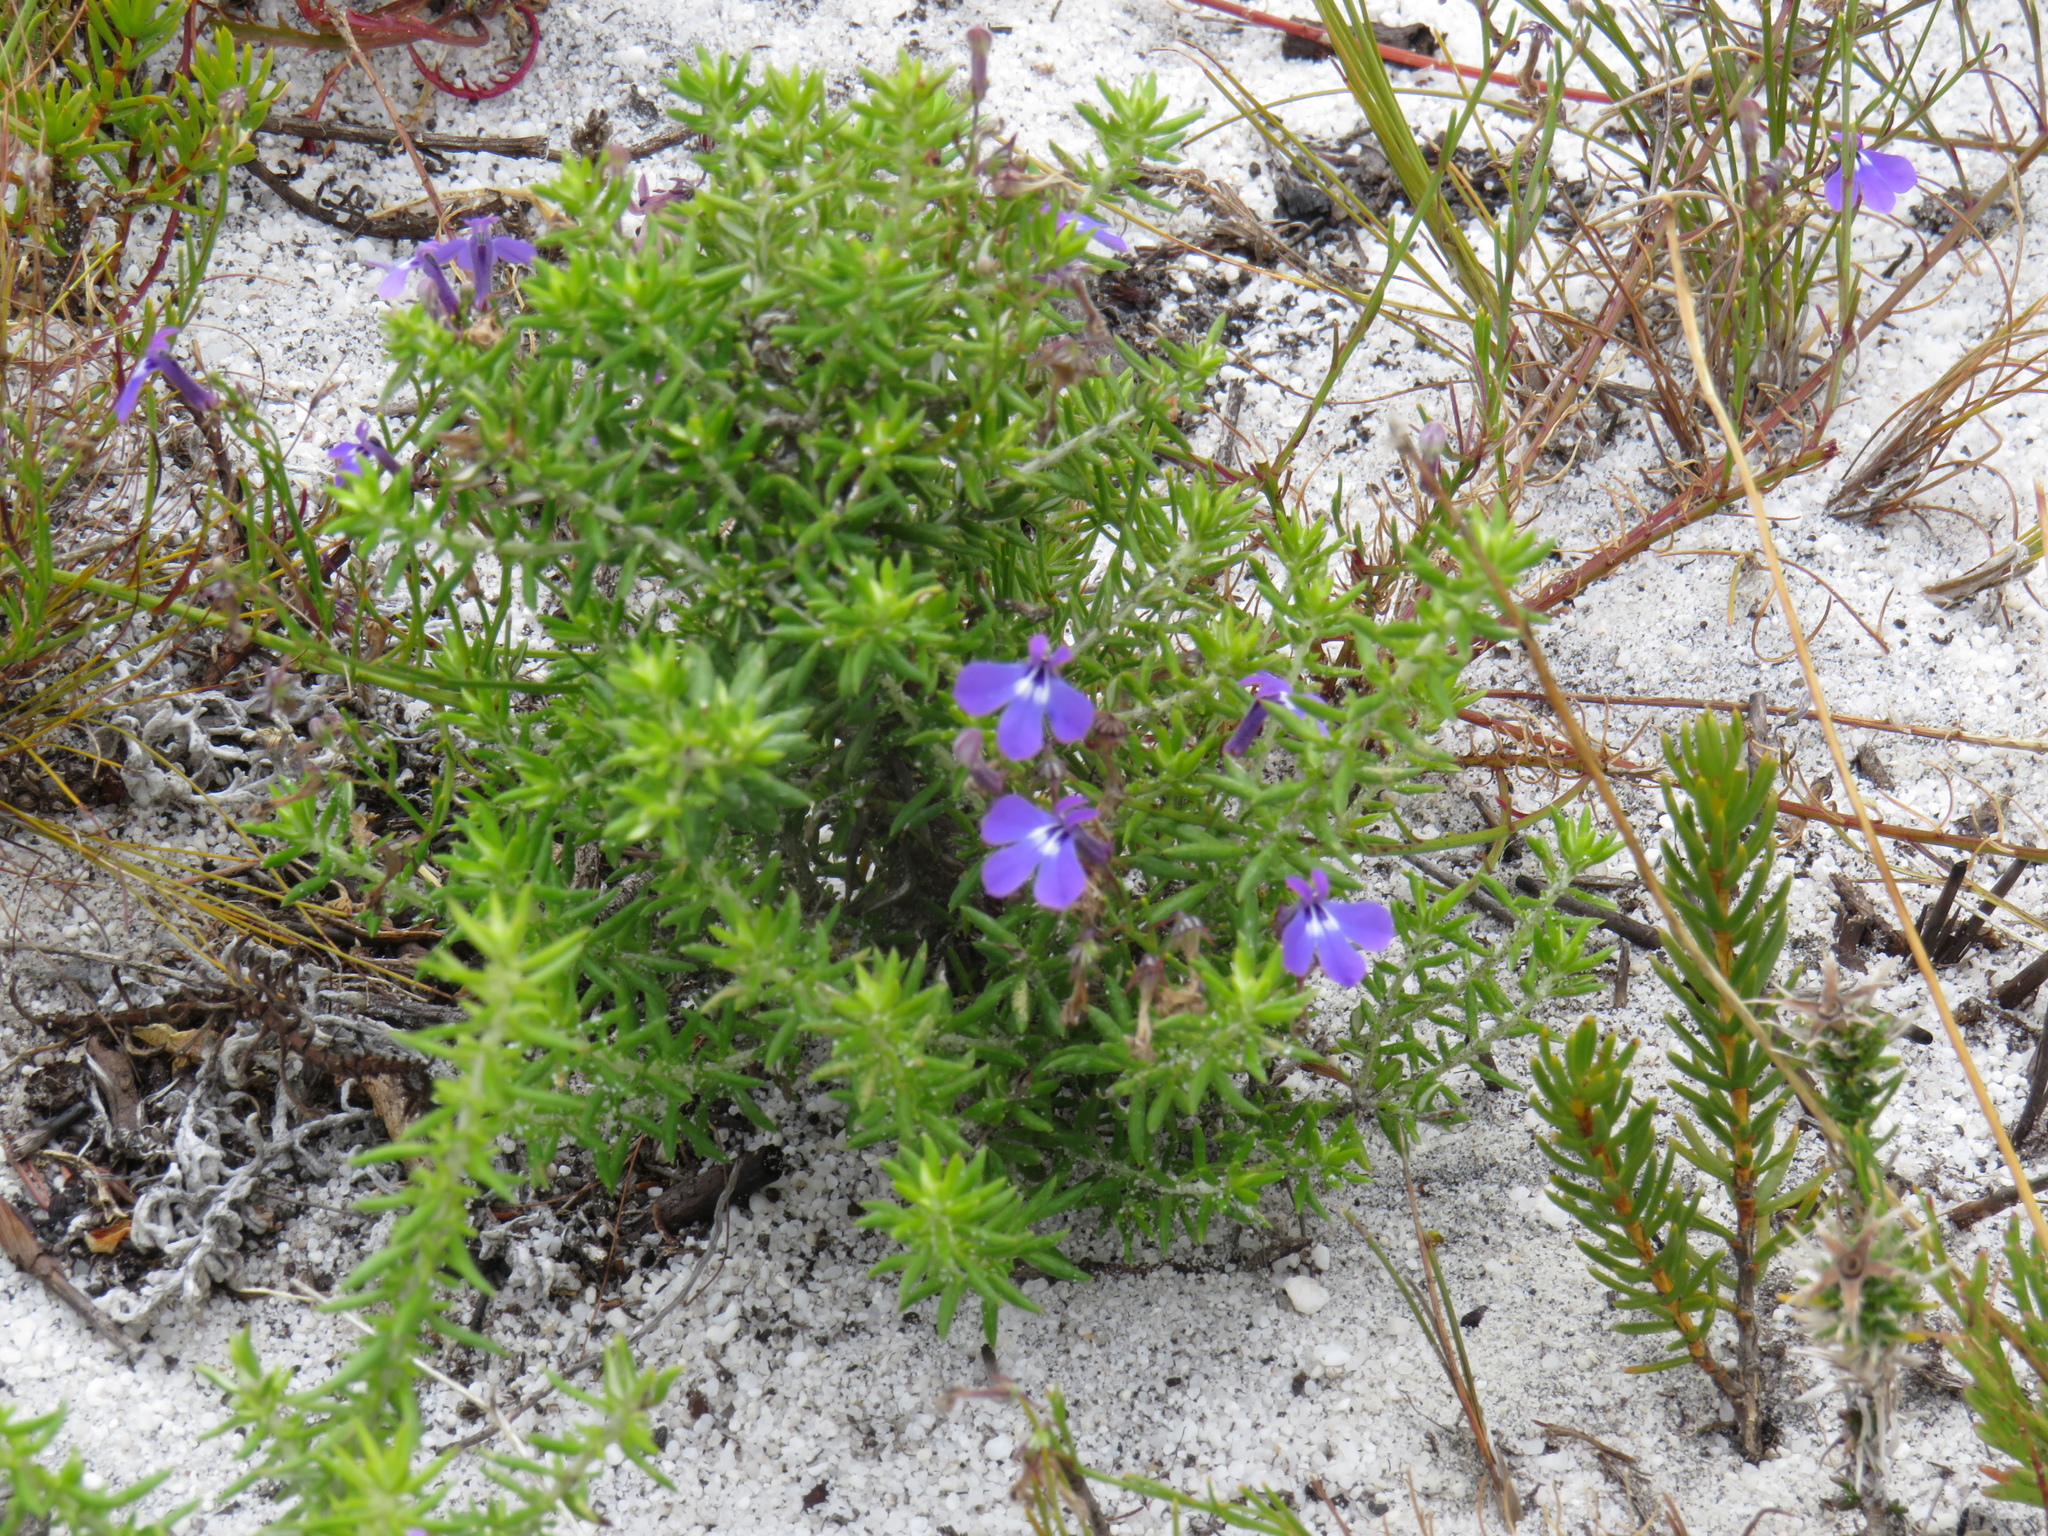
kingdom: Plantae
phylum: Tracheophyta
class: Magnoliopsida
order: Asterales
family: Campanulaceae
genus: Lobelia
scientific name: Lobelia setacea
